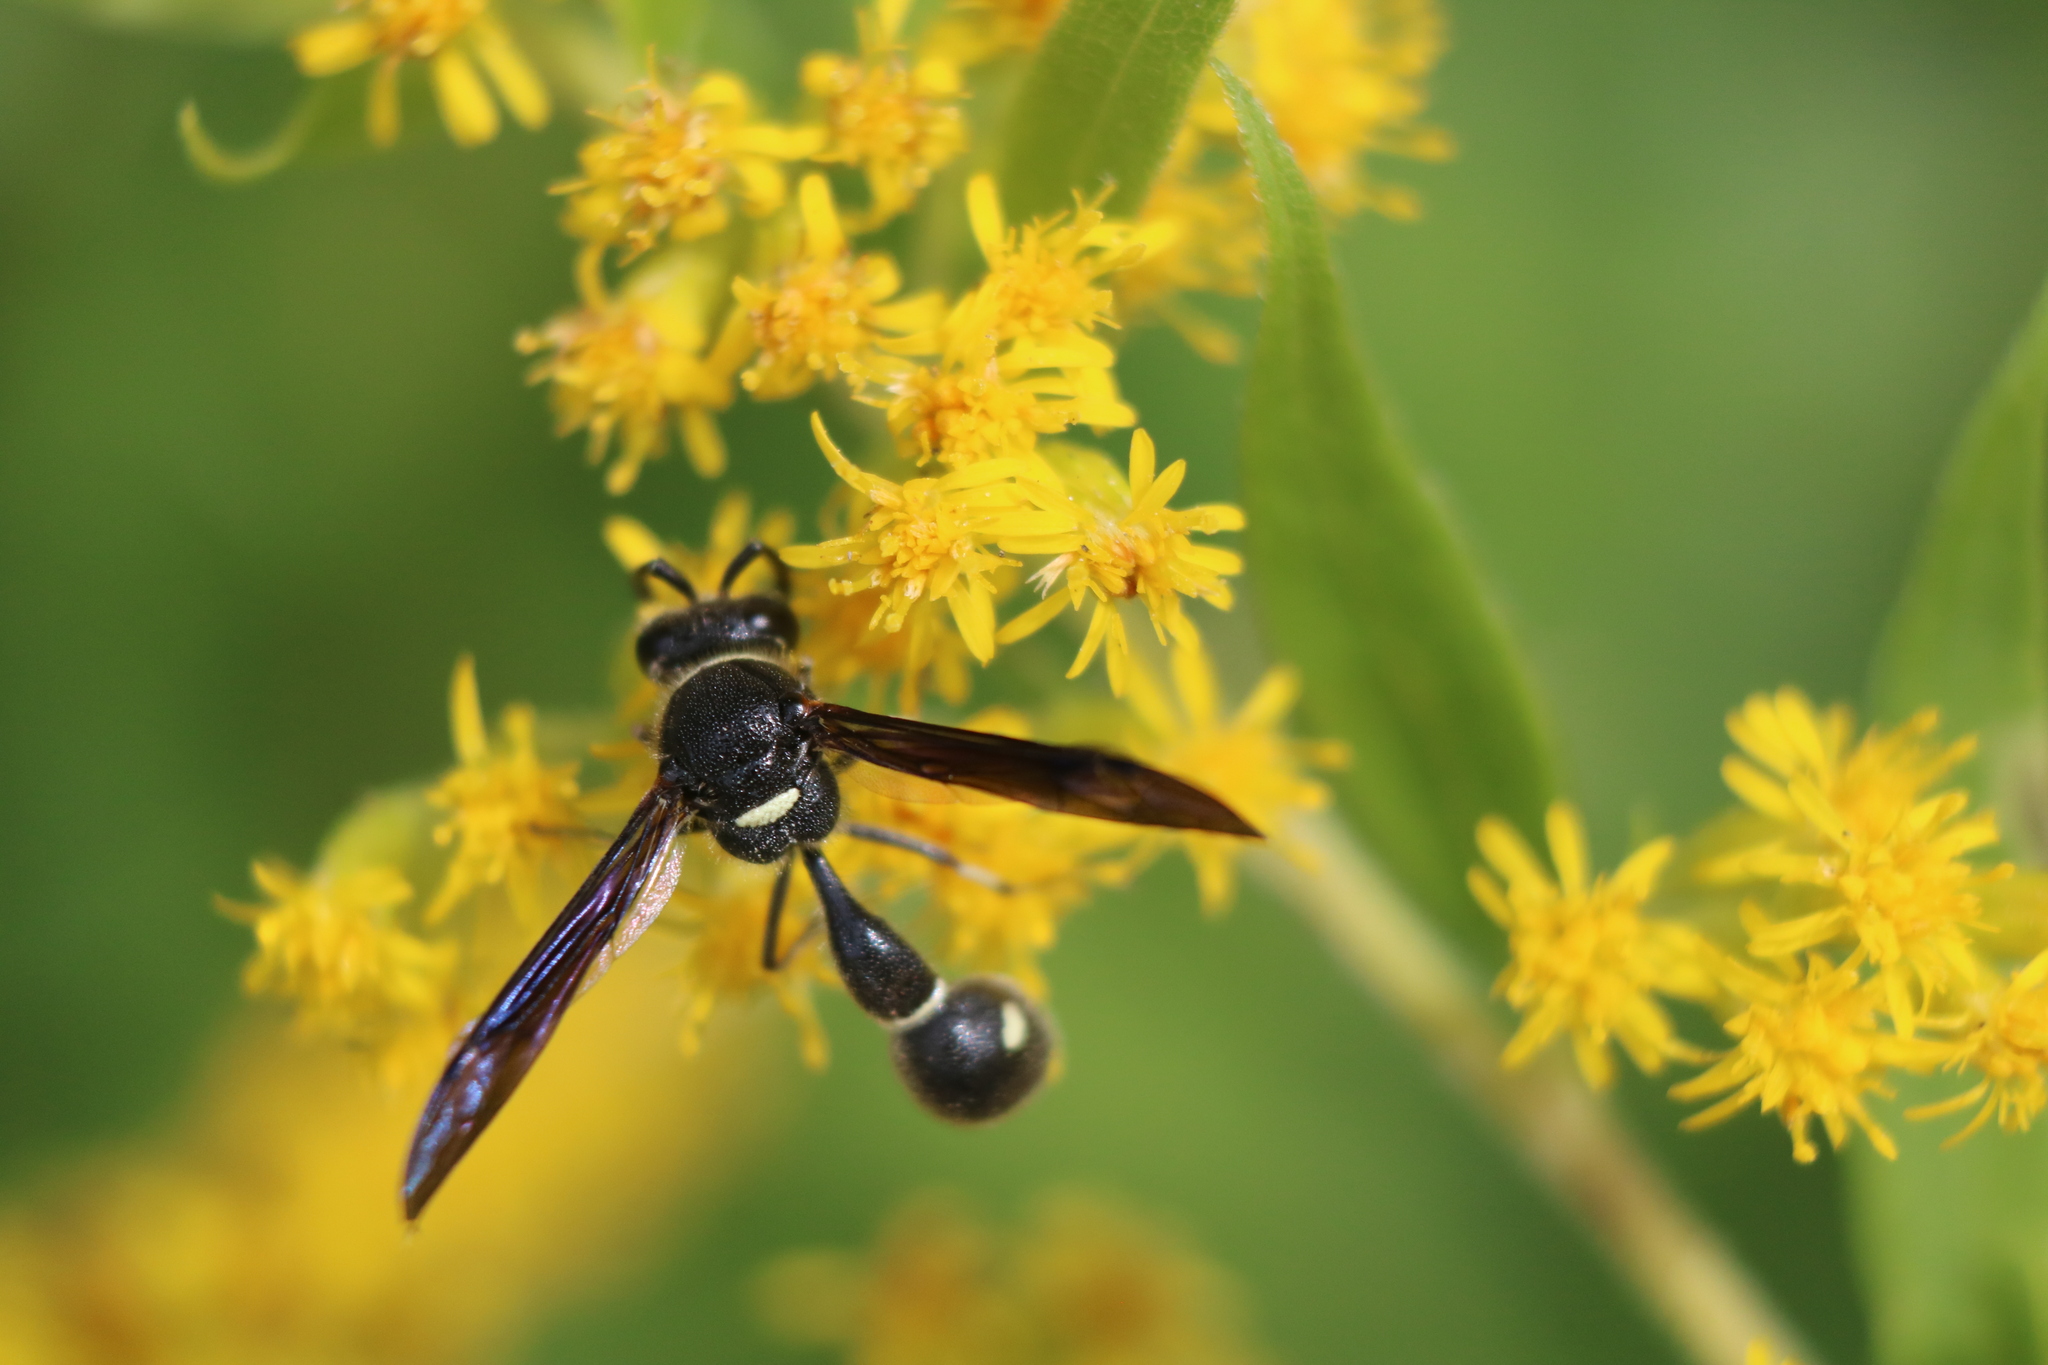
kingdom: Animalia
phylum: Arthropoda
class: Insecta
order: Hymenoptera
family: Vespidae
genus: Eumenes
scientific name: Eumenes fraternus
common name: Fraternal potter wasp
